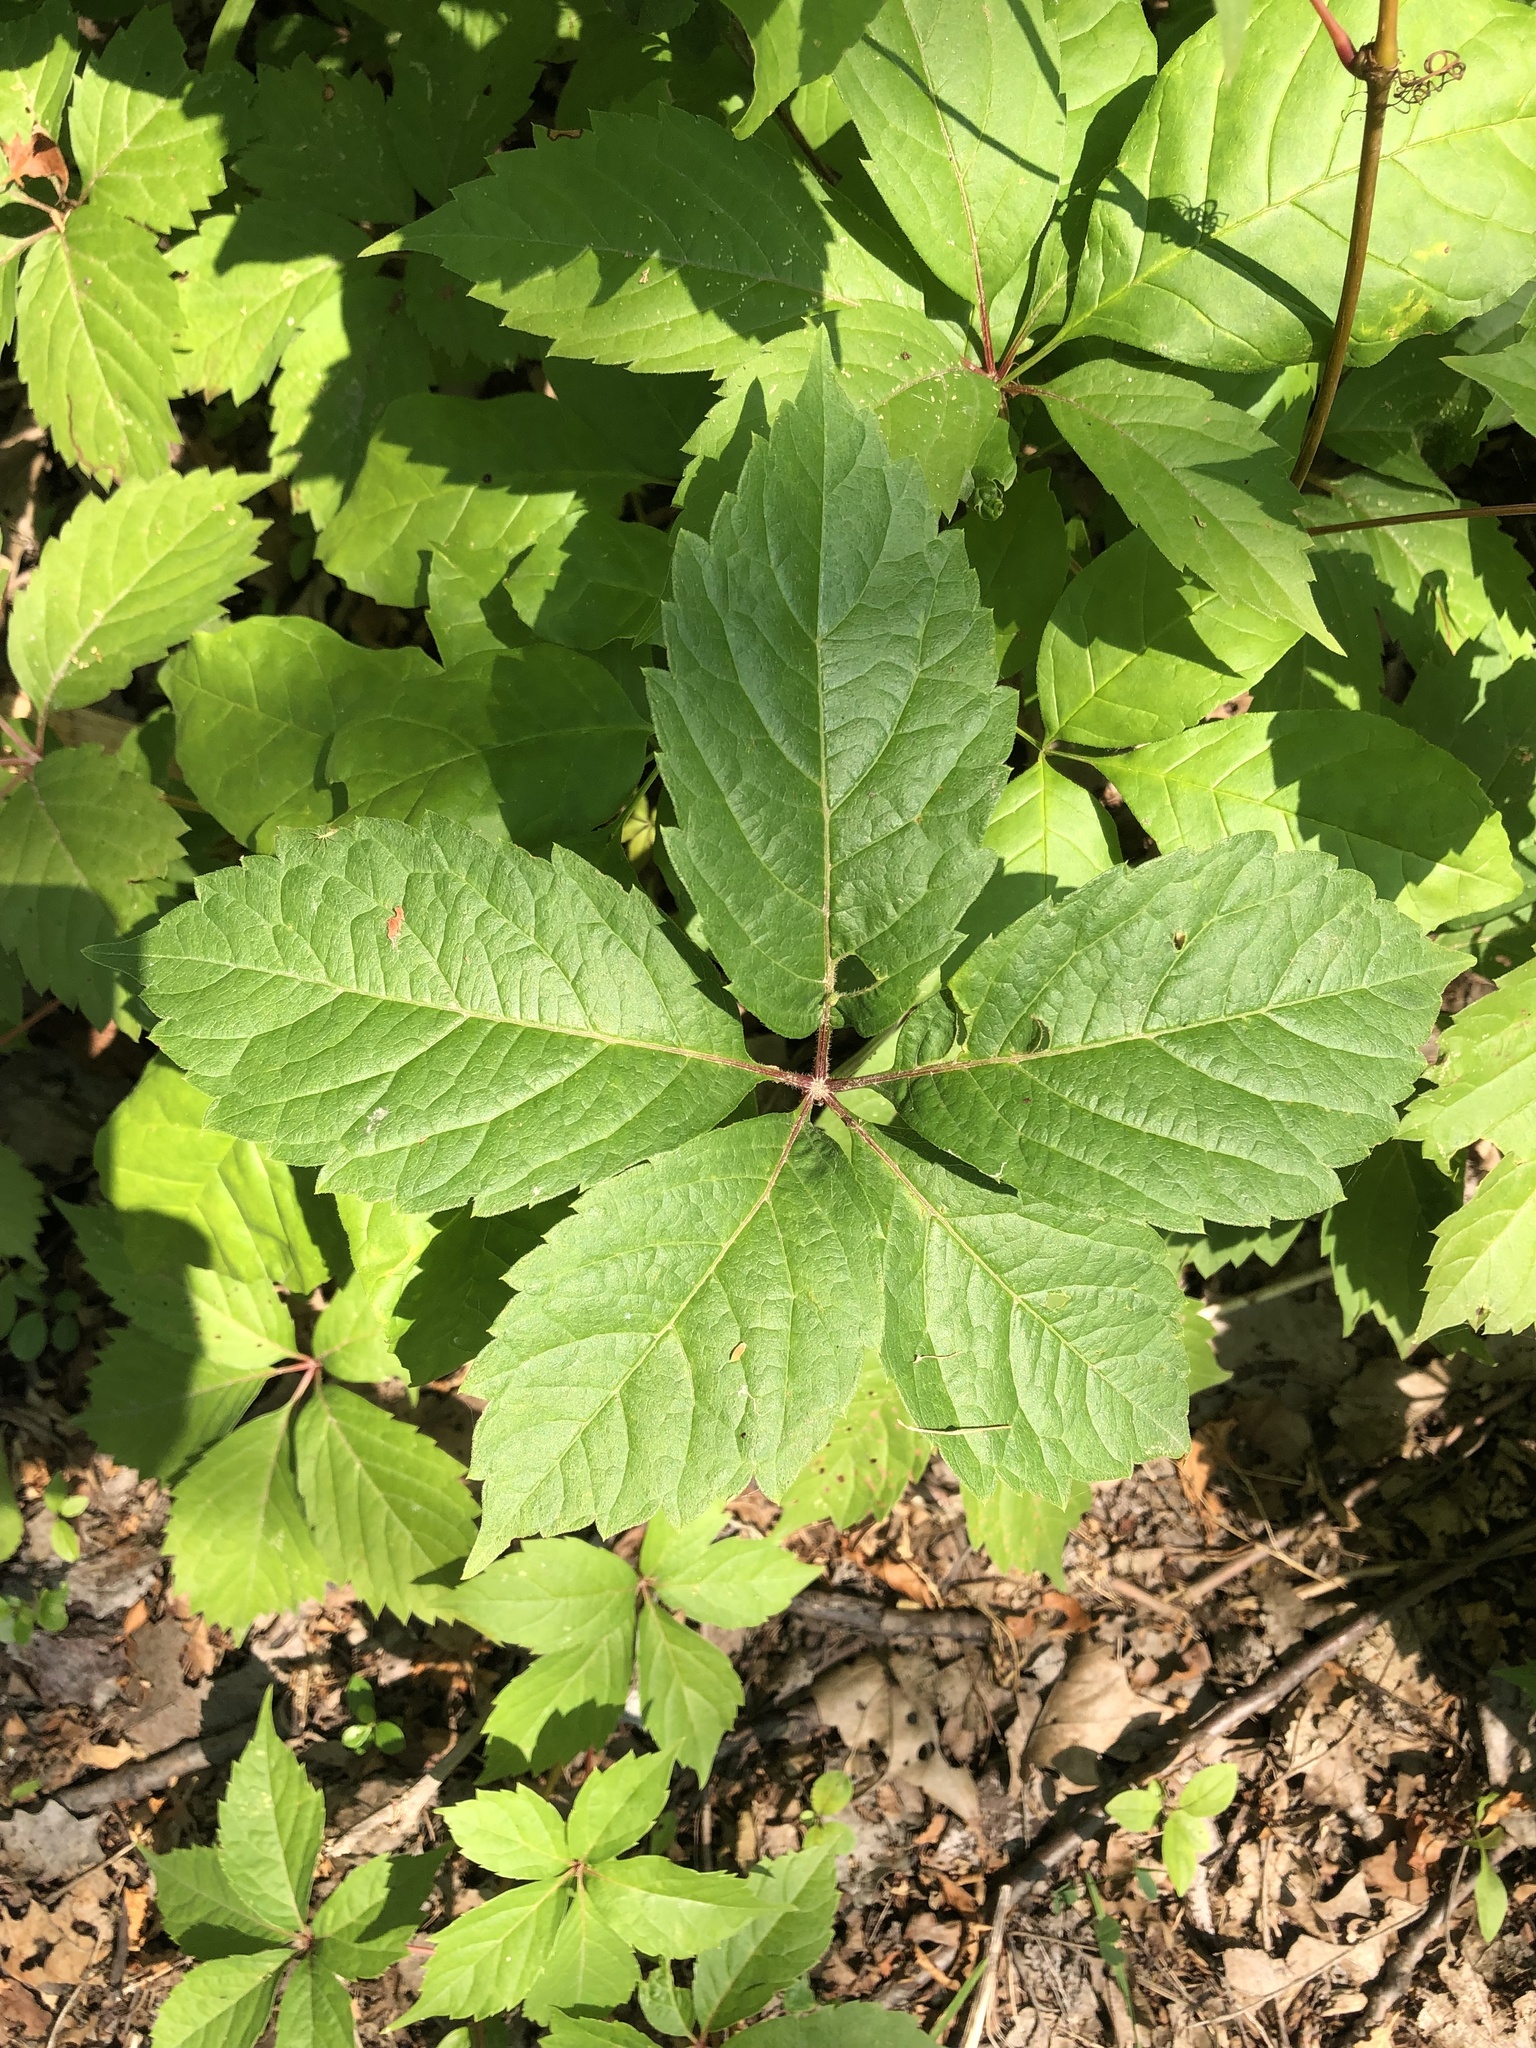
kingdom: Plantae
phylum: Tracheophyta
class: Magnoliopsida
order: Vitales
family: Vitaceae
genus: Parthenocissus
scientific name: Parthenocissus quinquefolia
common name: Virginia-creeper
